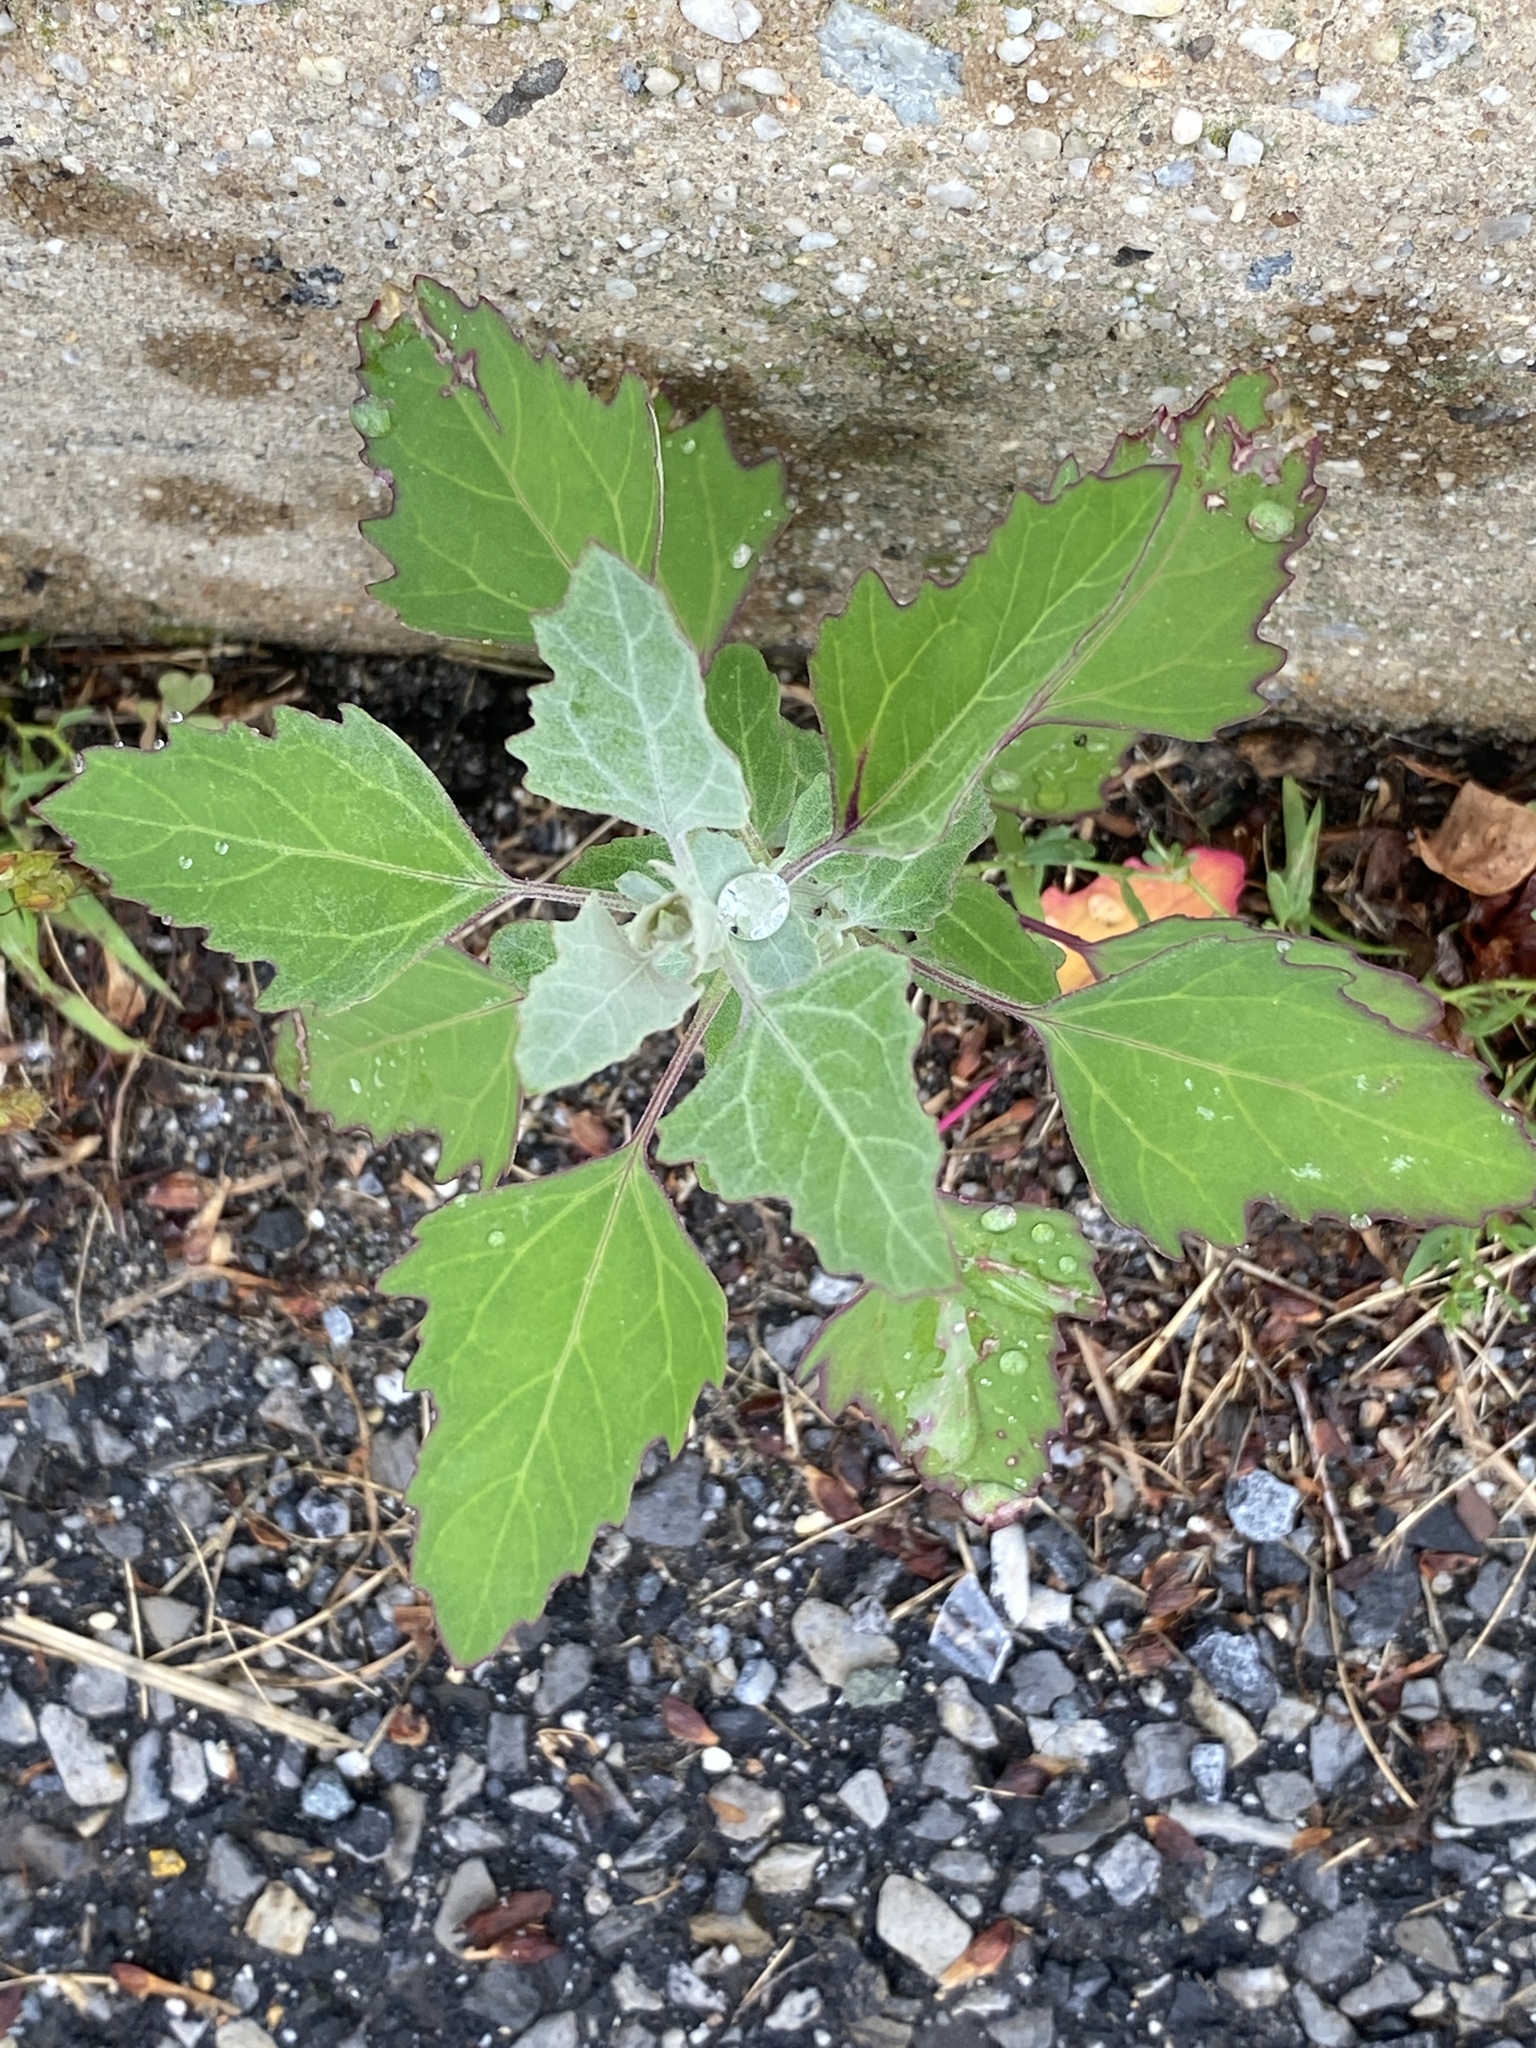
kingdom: Plantae
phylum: Tracheophyta
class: Magnoliopsida
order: Caryophyllales
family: Amaranthaceae
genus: Chenopodium
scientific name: Chenopodium album
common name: Fat-hen
